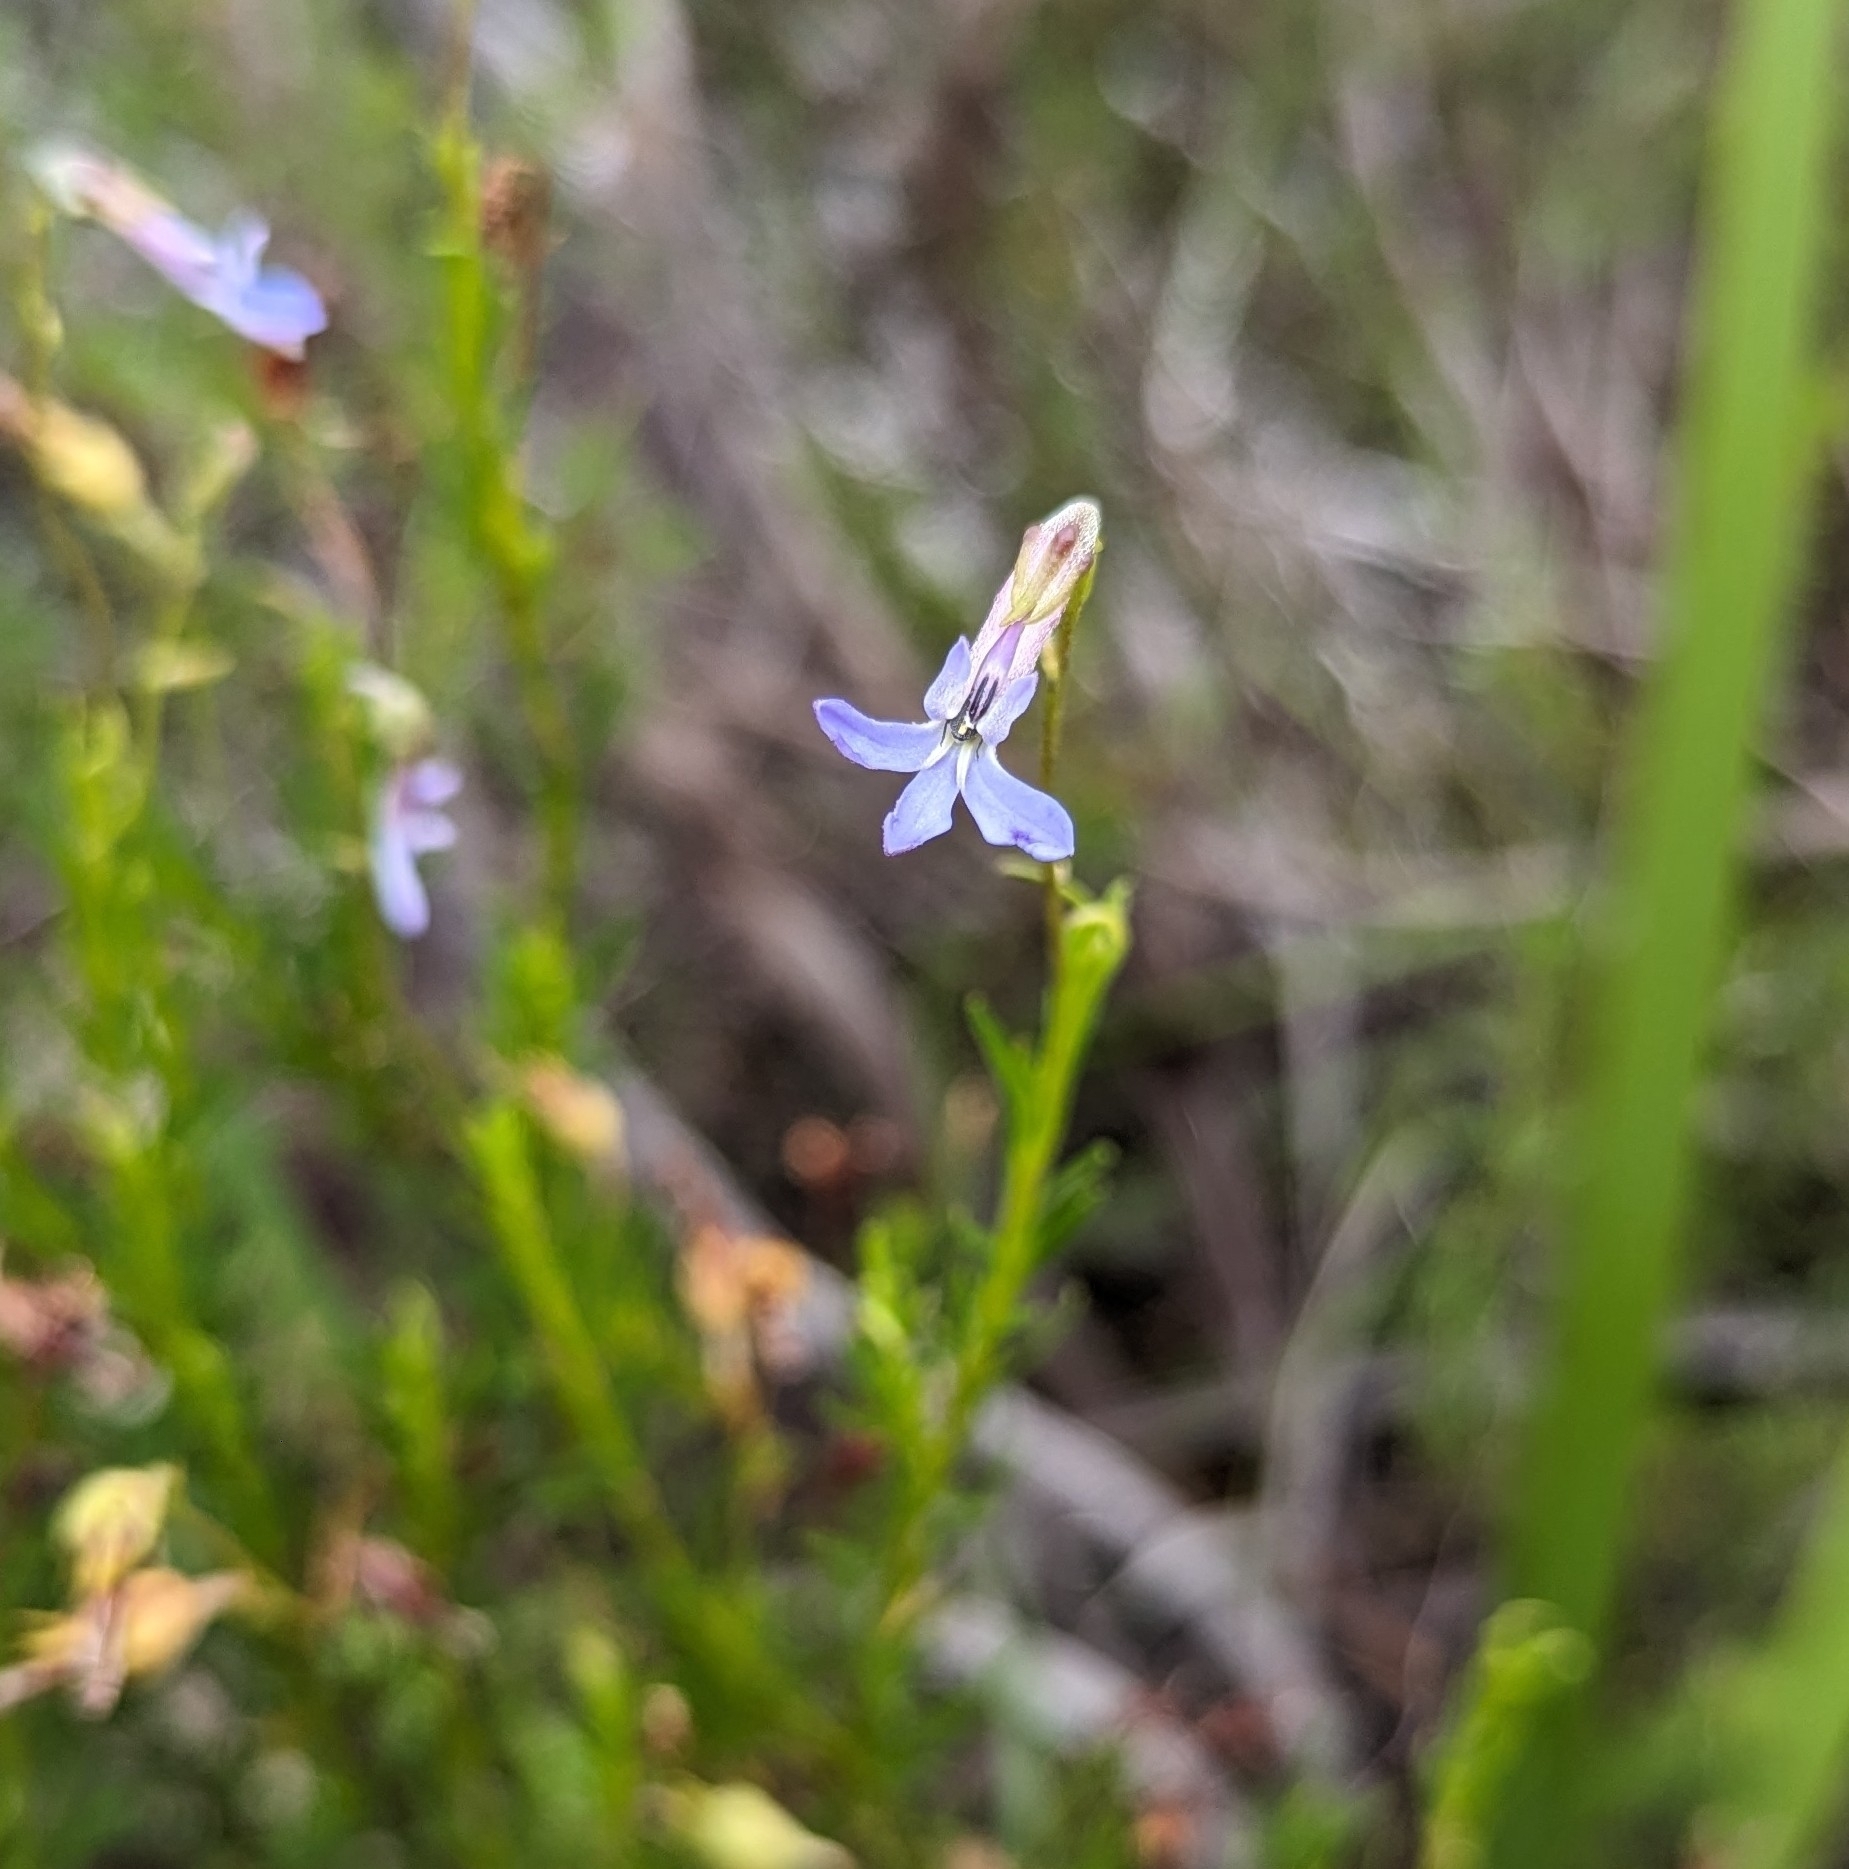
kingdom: Plantae
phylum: Tracheophyta
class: Magnoliopsida
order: Asterales
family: Campanulaceae
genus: Lobelia
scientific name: Lobelia pinifolia
